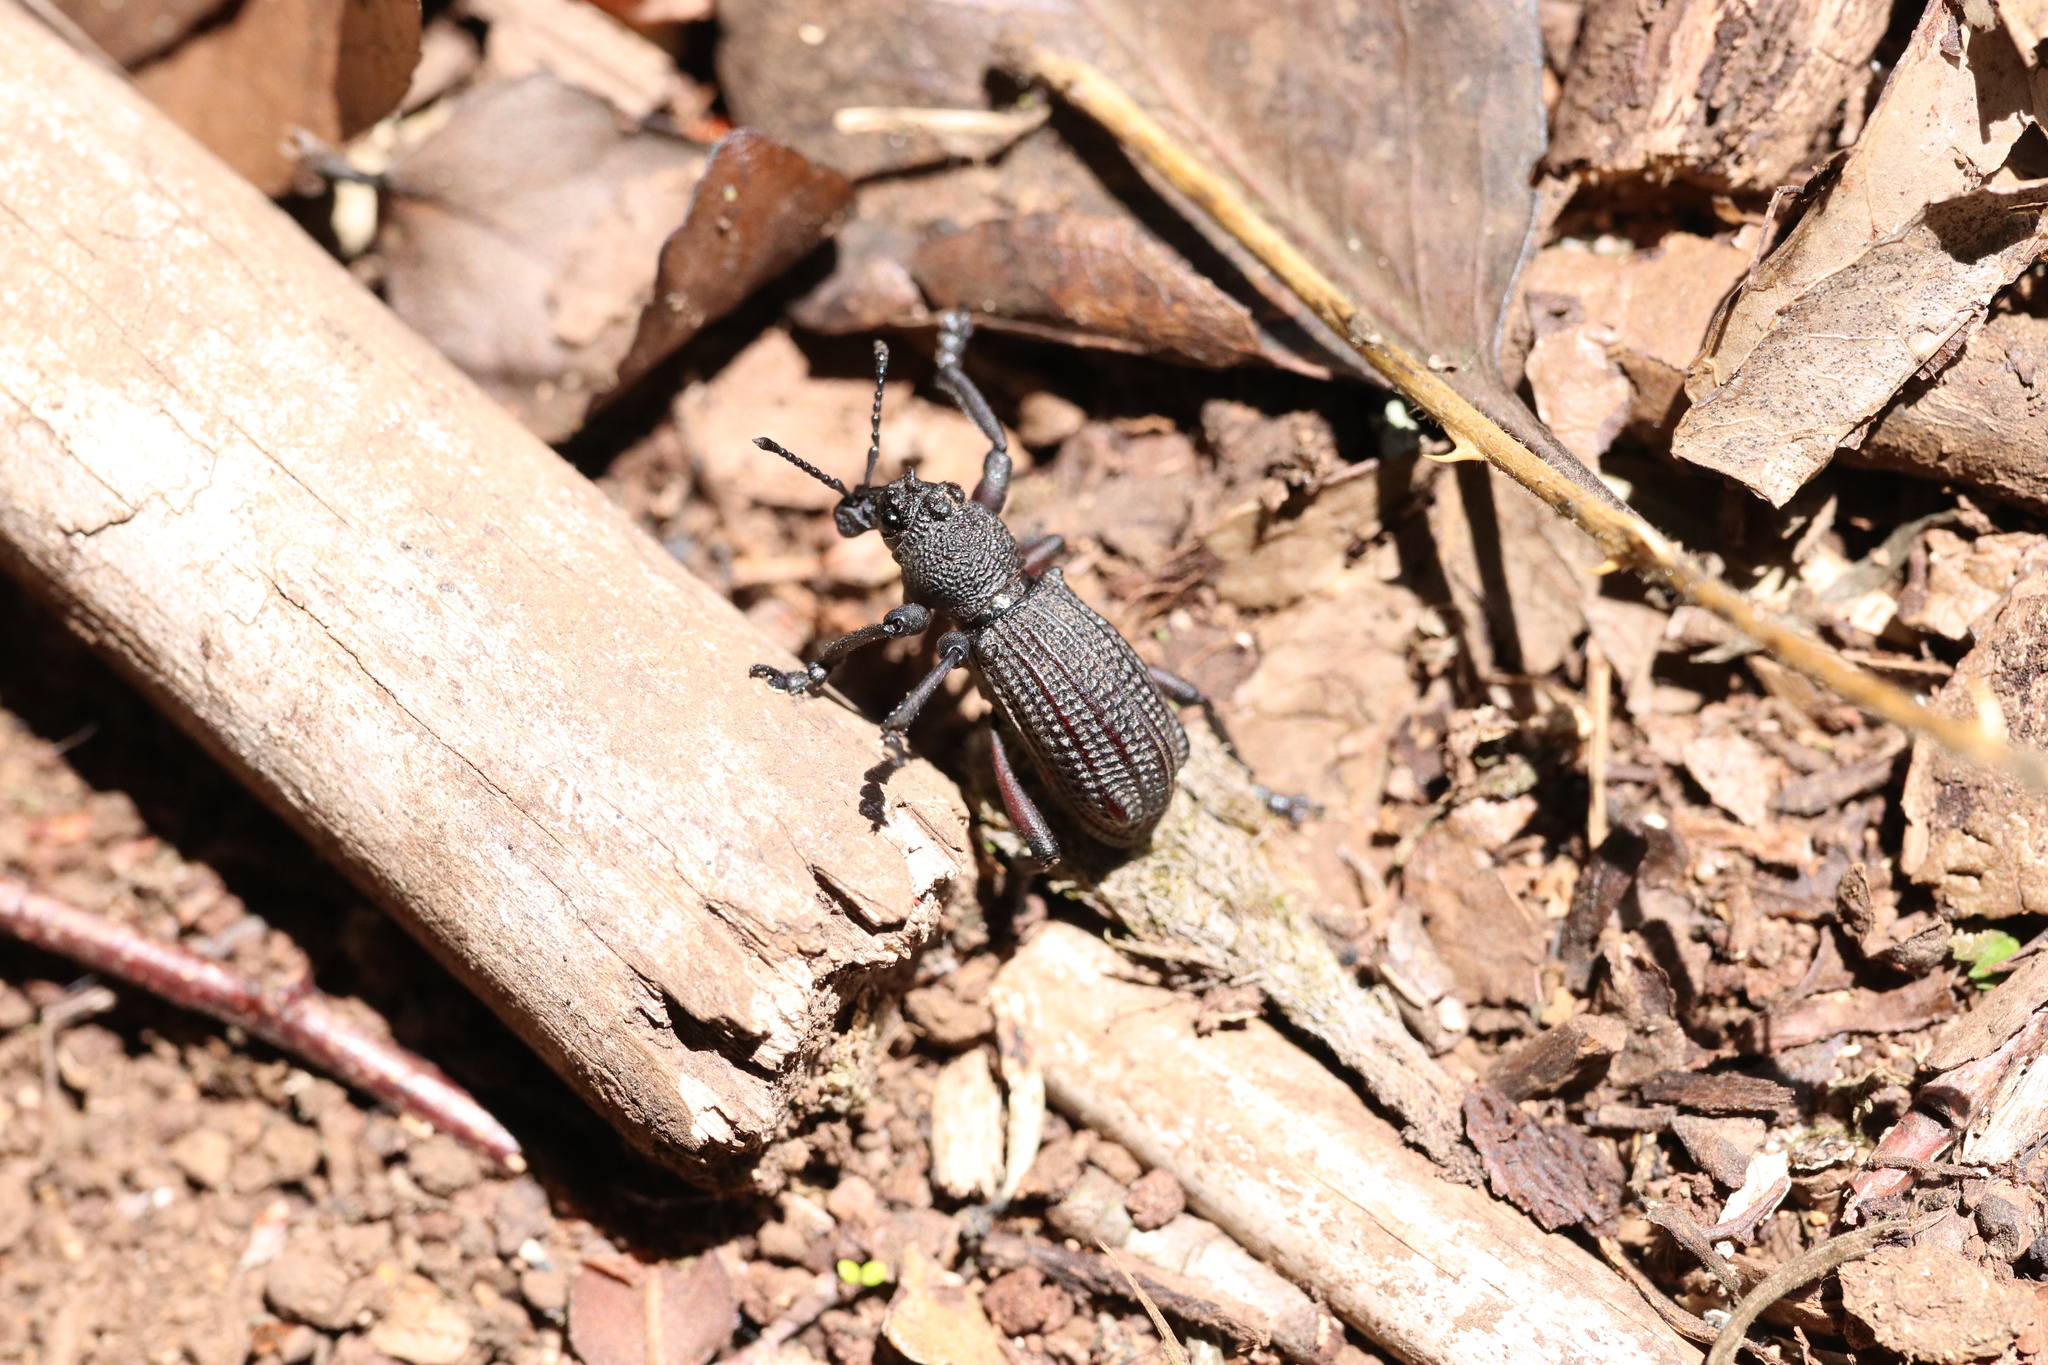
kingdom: Animalia
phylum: Arthropoda
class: Insecta
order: Coleoptera
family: Curculionidae
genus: Aegorhinus
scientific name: Aegorhinus
